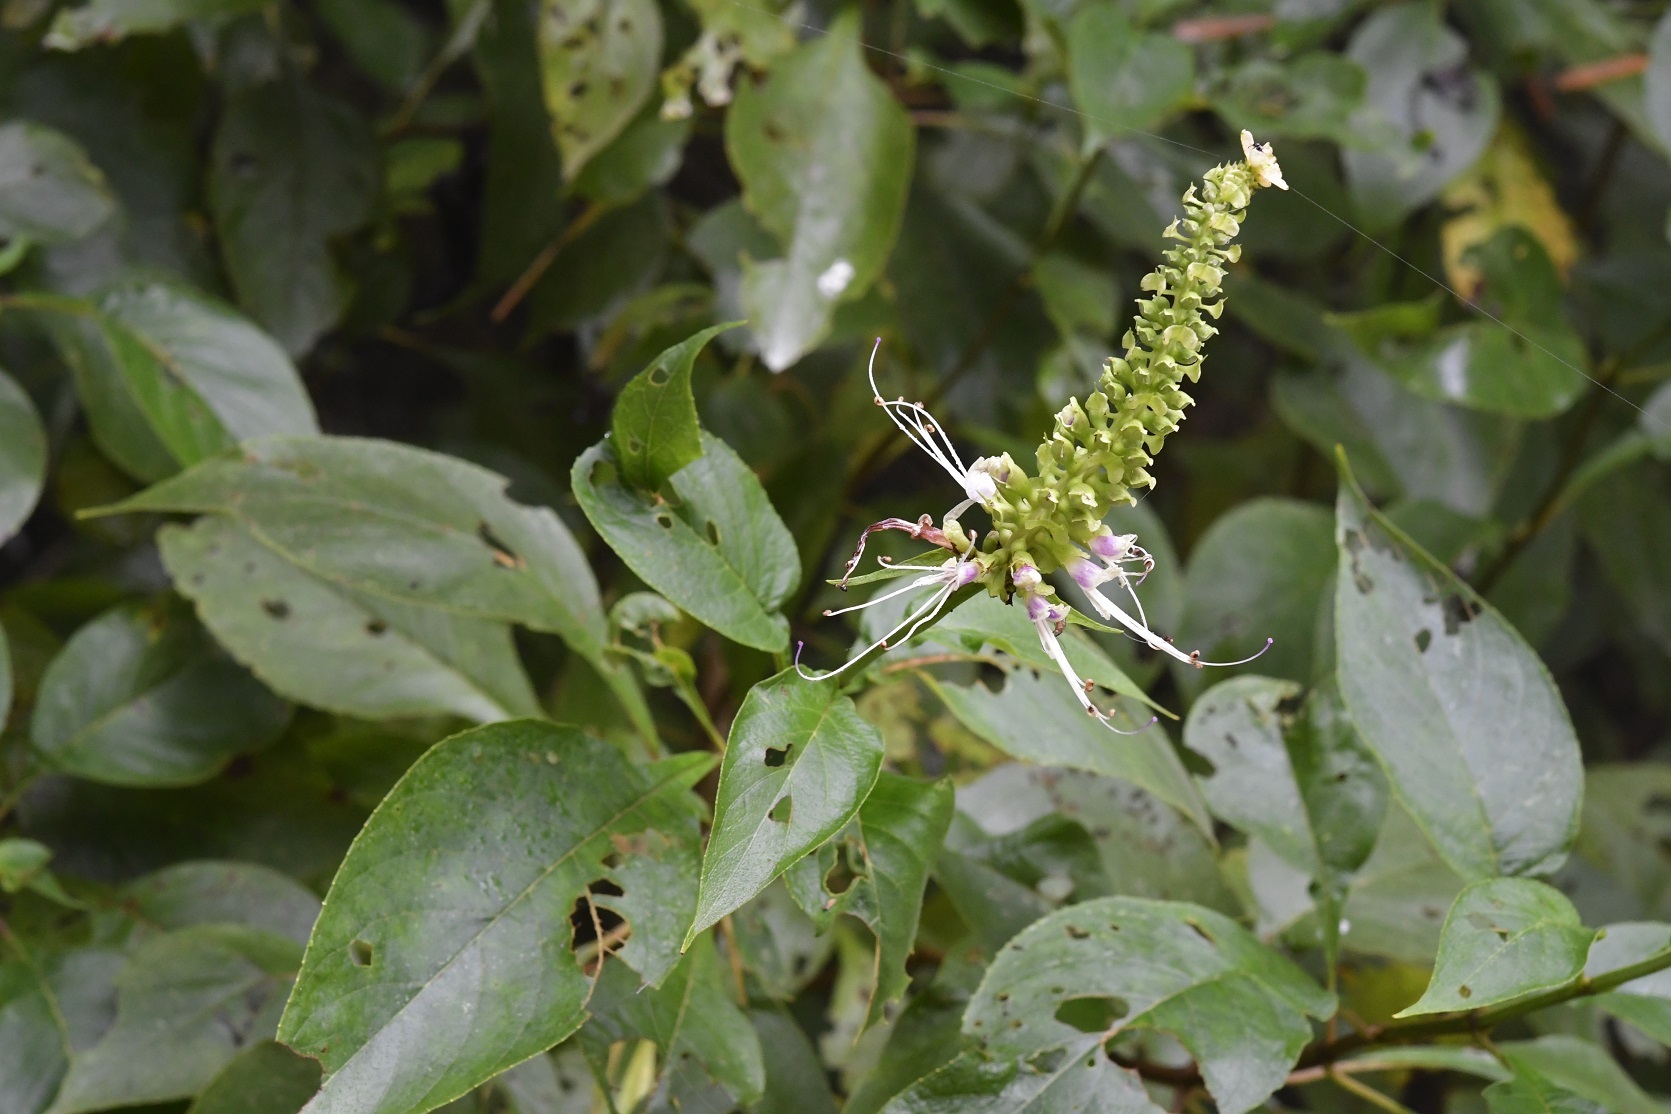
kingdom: Plantae
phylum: Tracheophyta
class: Magnoliopsida
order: Lamiales
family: Lamiaceae
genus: Catoferia
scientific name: Catoferia chiapensis
